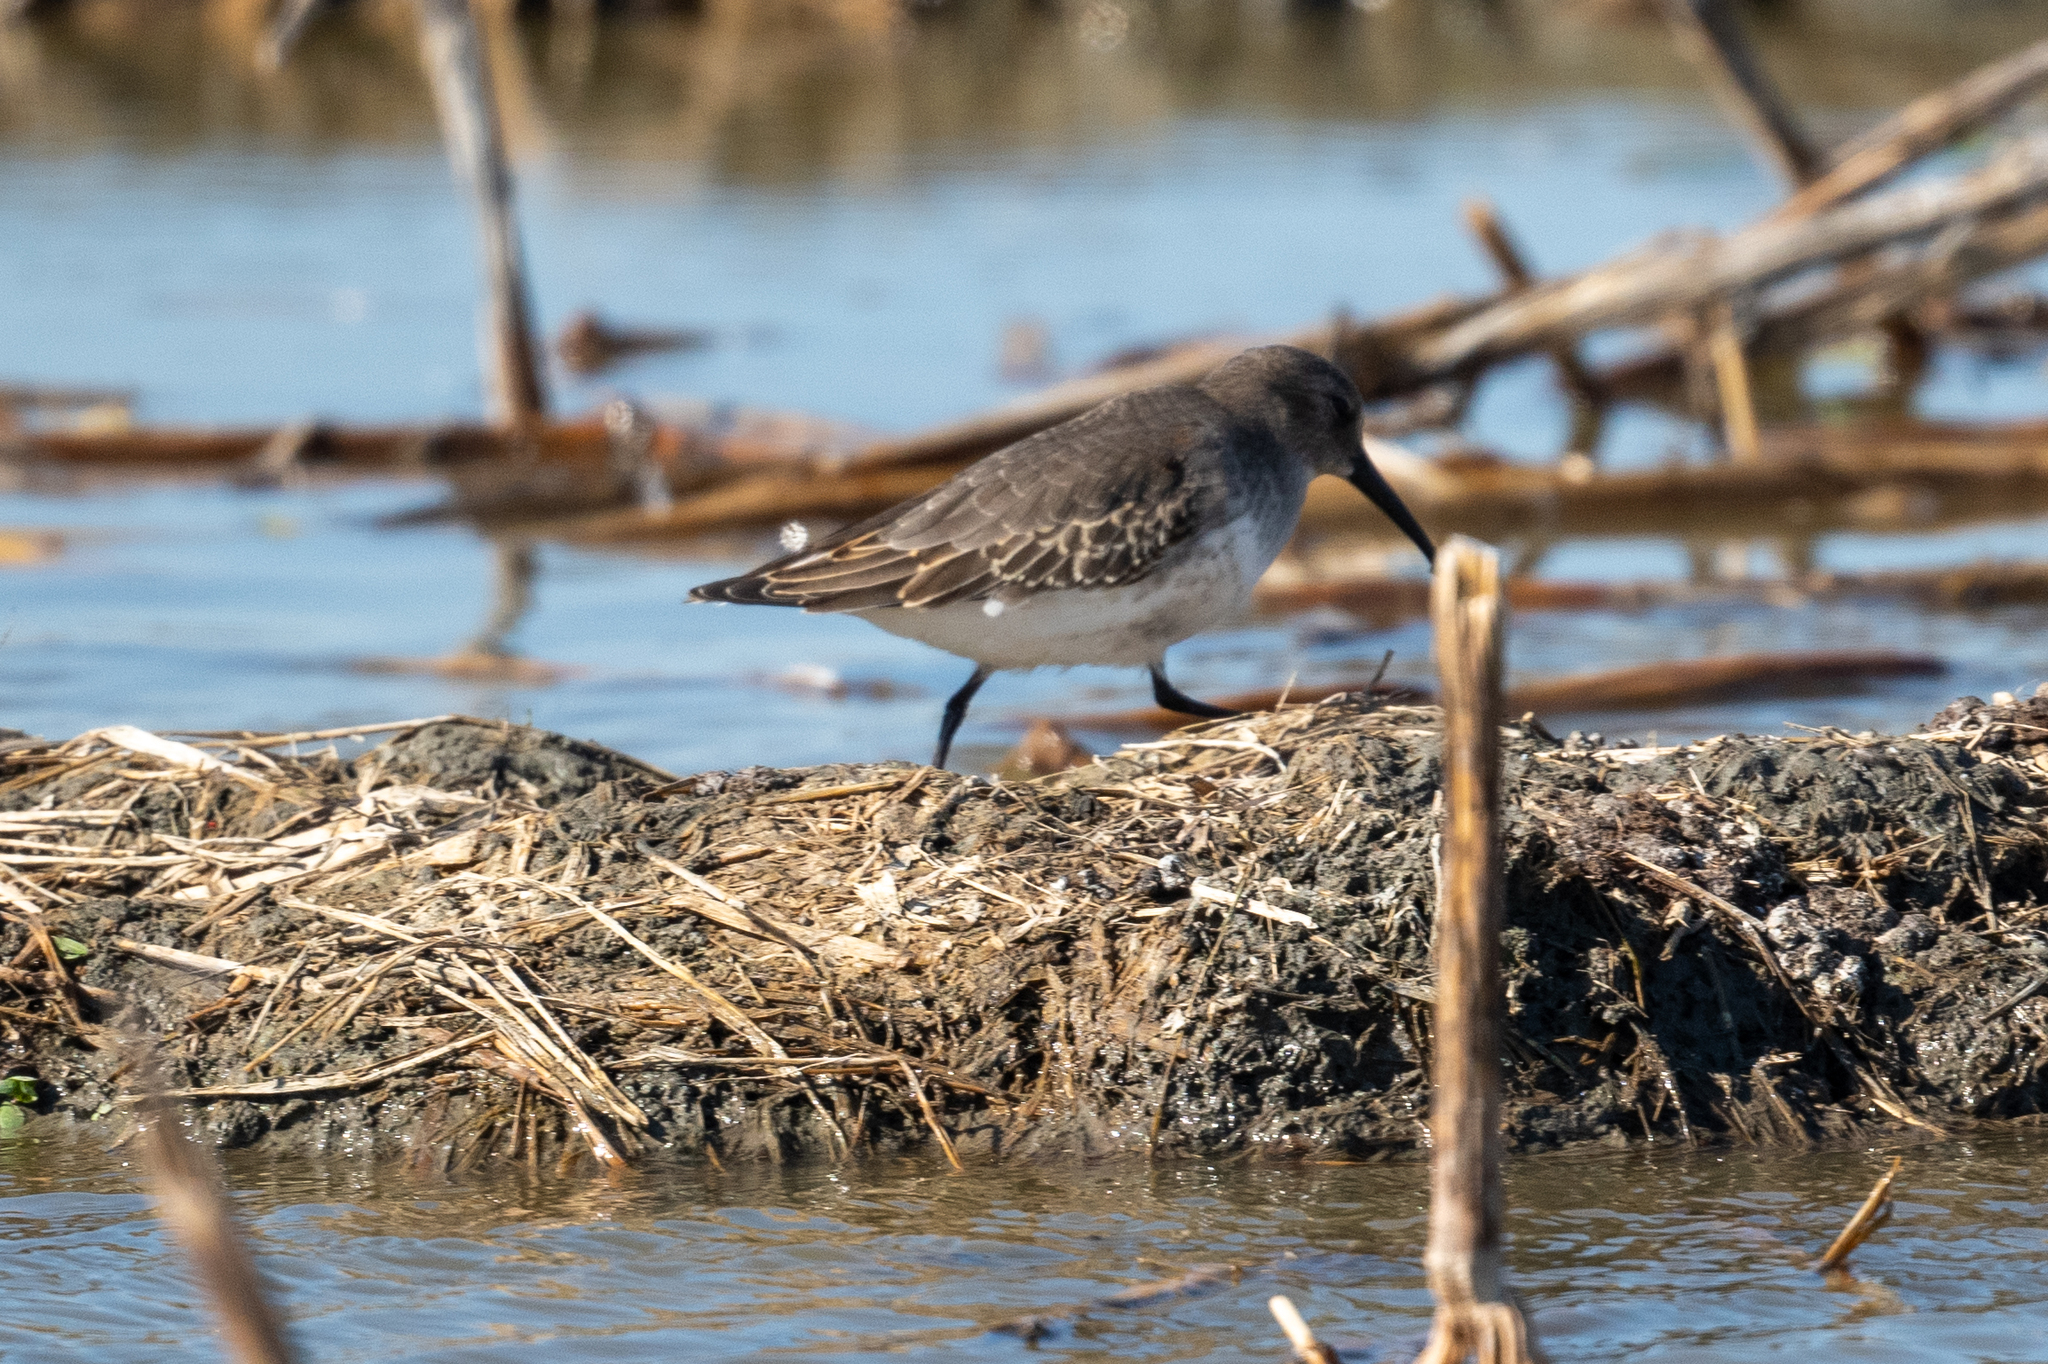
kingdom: Animalia
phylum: Chordata
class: Aves
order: Charadriiformes
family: Scolopacidae
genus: Calidris
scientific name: Calidris alpina
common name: Dunlin
